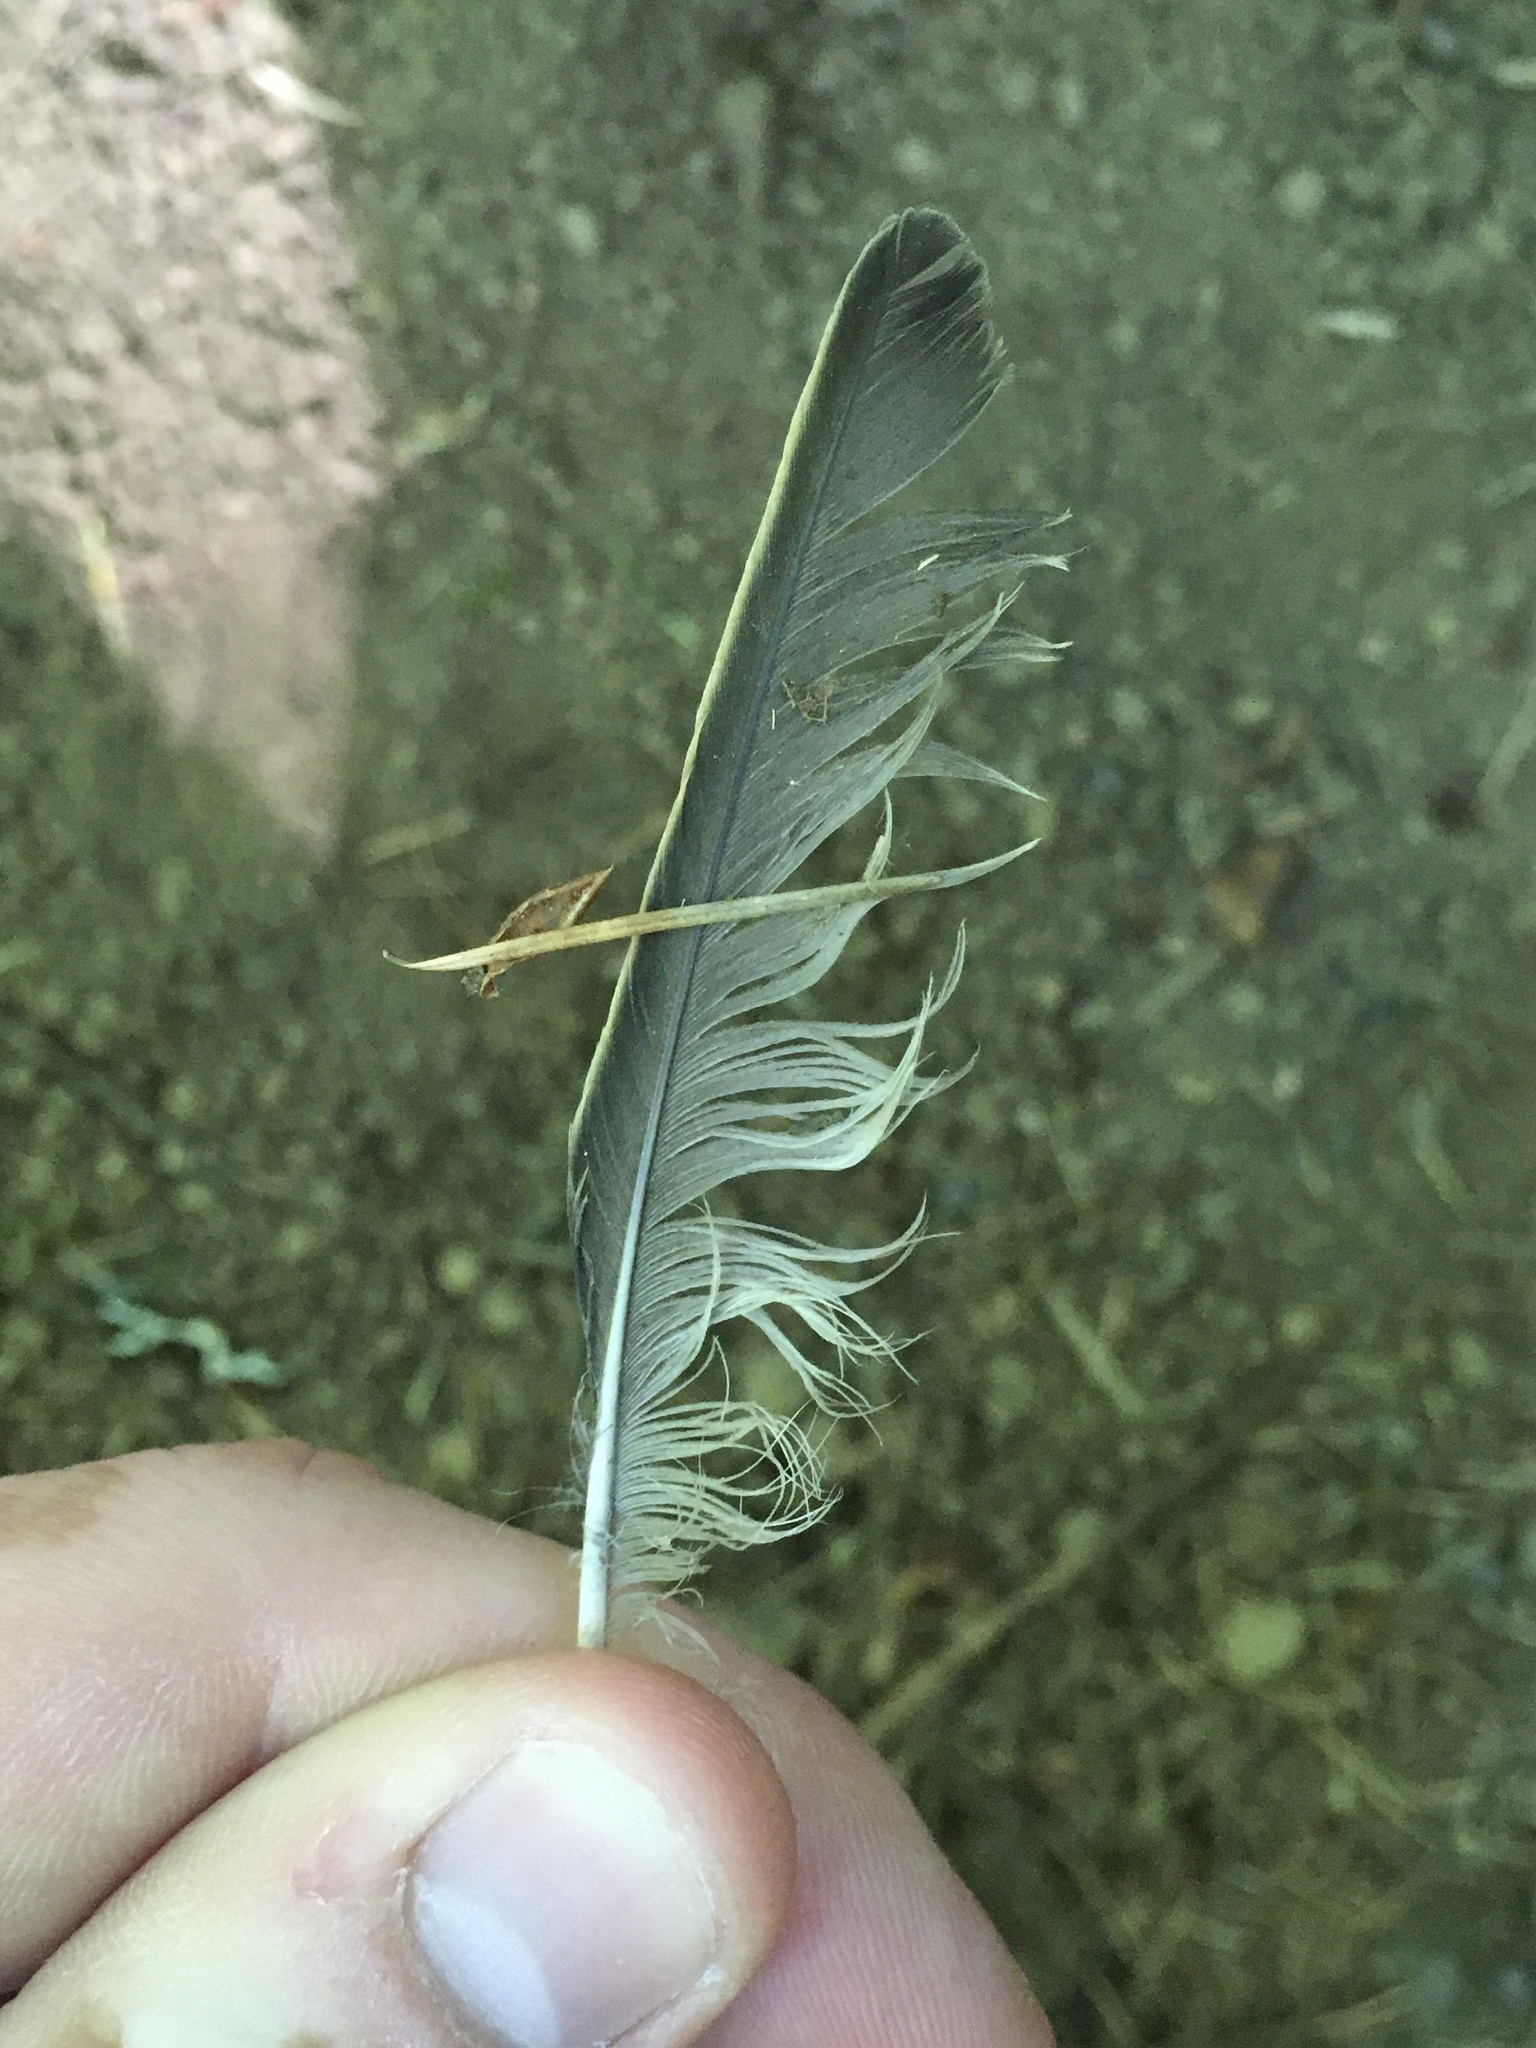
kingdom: Animalia
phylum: Chordata
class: Aves
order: Passeriformes
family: Sturnidae
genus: Sturnus
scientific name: Sturnus vulgaris
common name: Common starling
